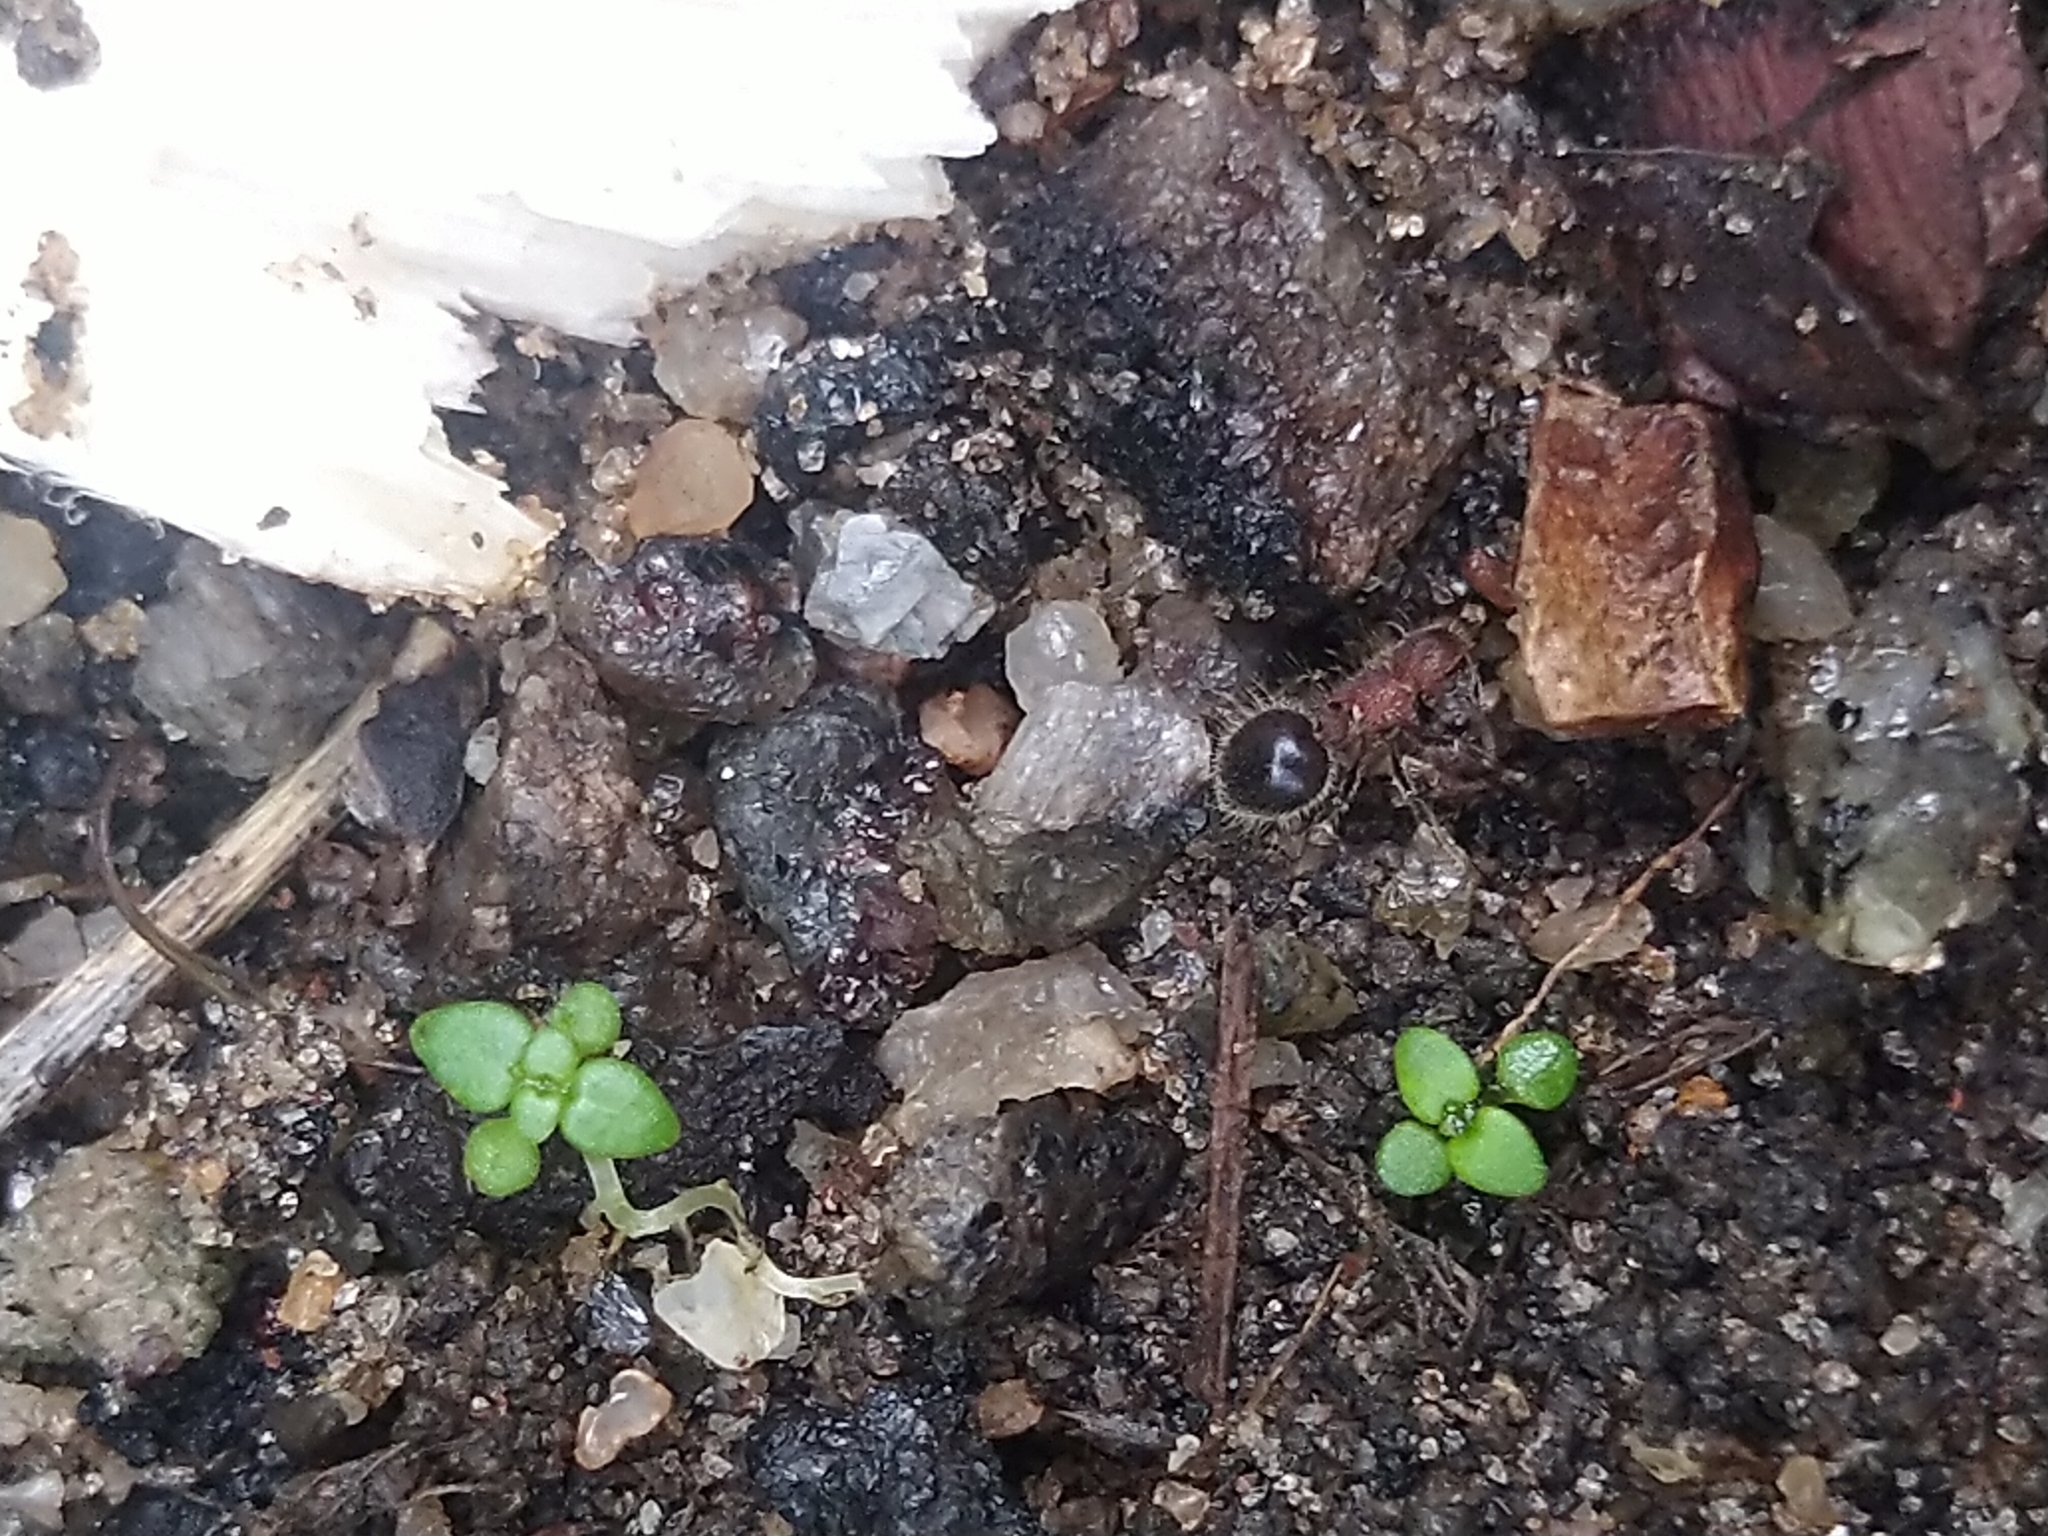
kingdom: Animalia
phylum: Arthropoda
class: Insecta
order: Hymenoptera
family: Formicidae
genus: Meranoplus
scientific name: Meranoplus bicolor
